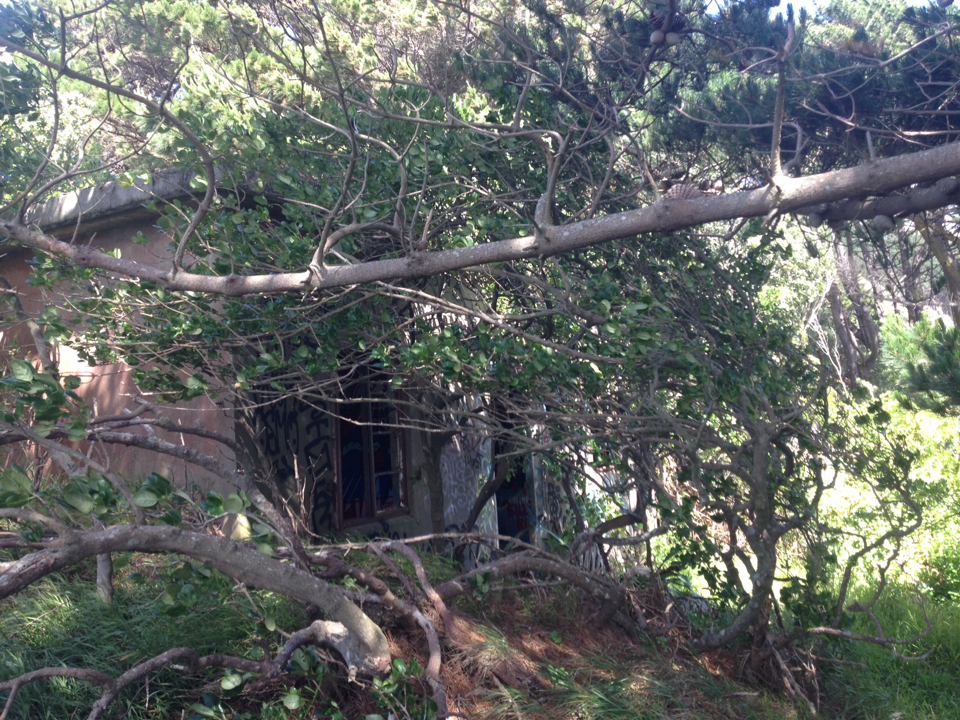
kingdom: Plantae
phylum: Tracheophyta
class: Magnoliopsida
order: Gentianales
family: Rubiaceae
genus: Coprosma
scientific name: Coprosma repens
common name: Tree bedstraw
